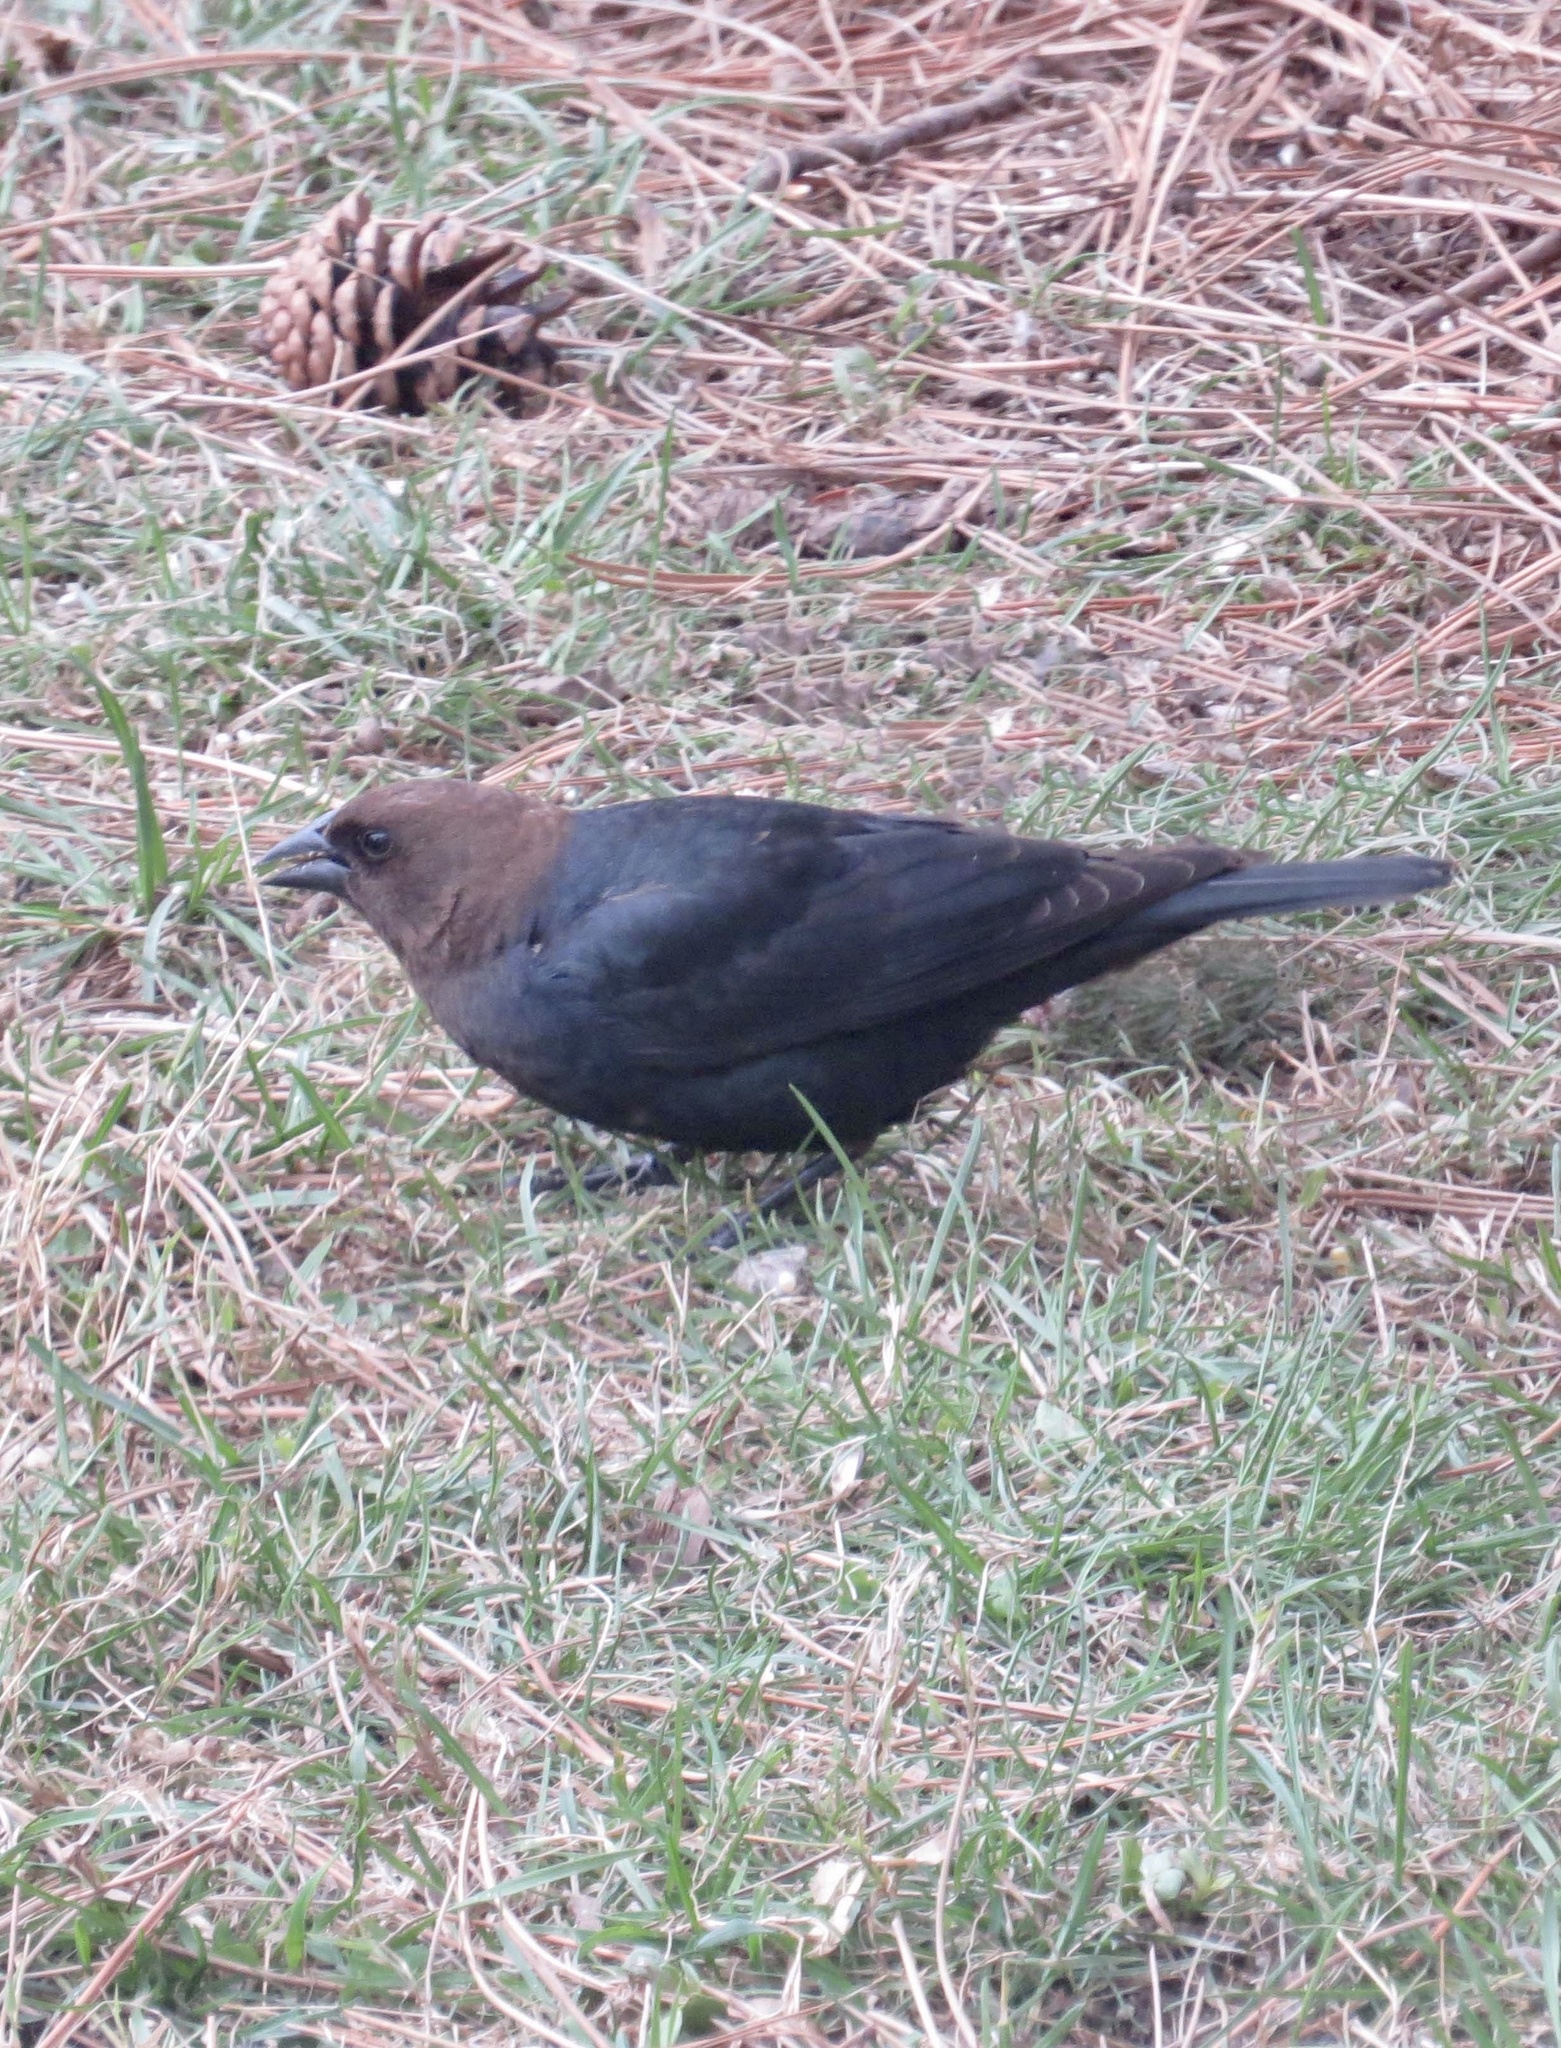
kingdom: Animalia
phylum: Chordata
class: Aves
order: Passeriformes
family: Icteridae
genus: Molothrus
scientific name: Molothrus ater
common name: Brown-headed cowbird
